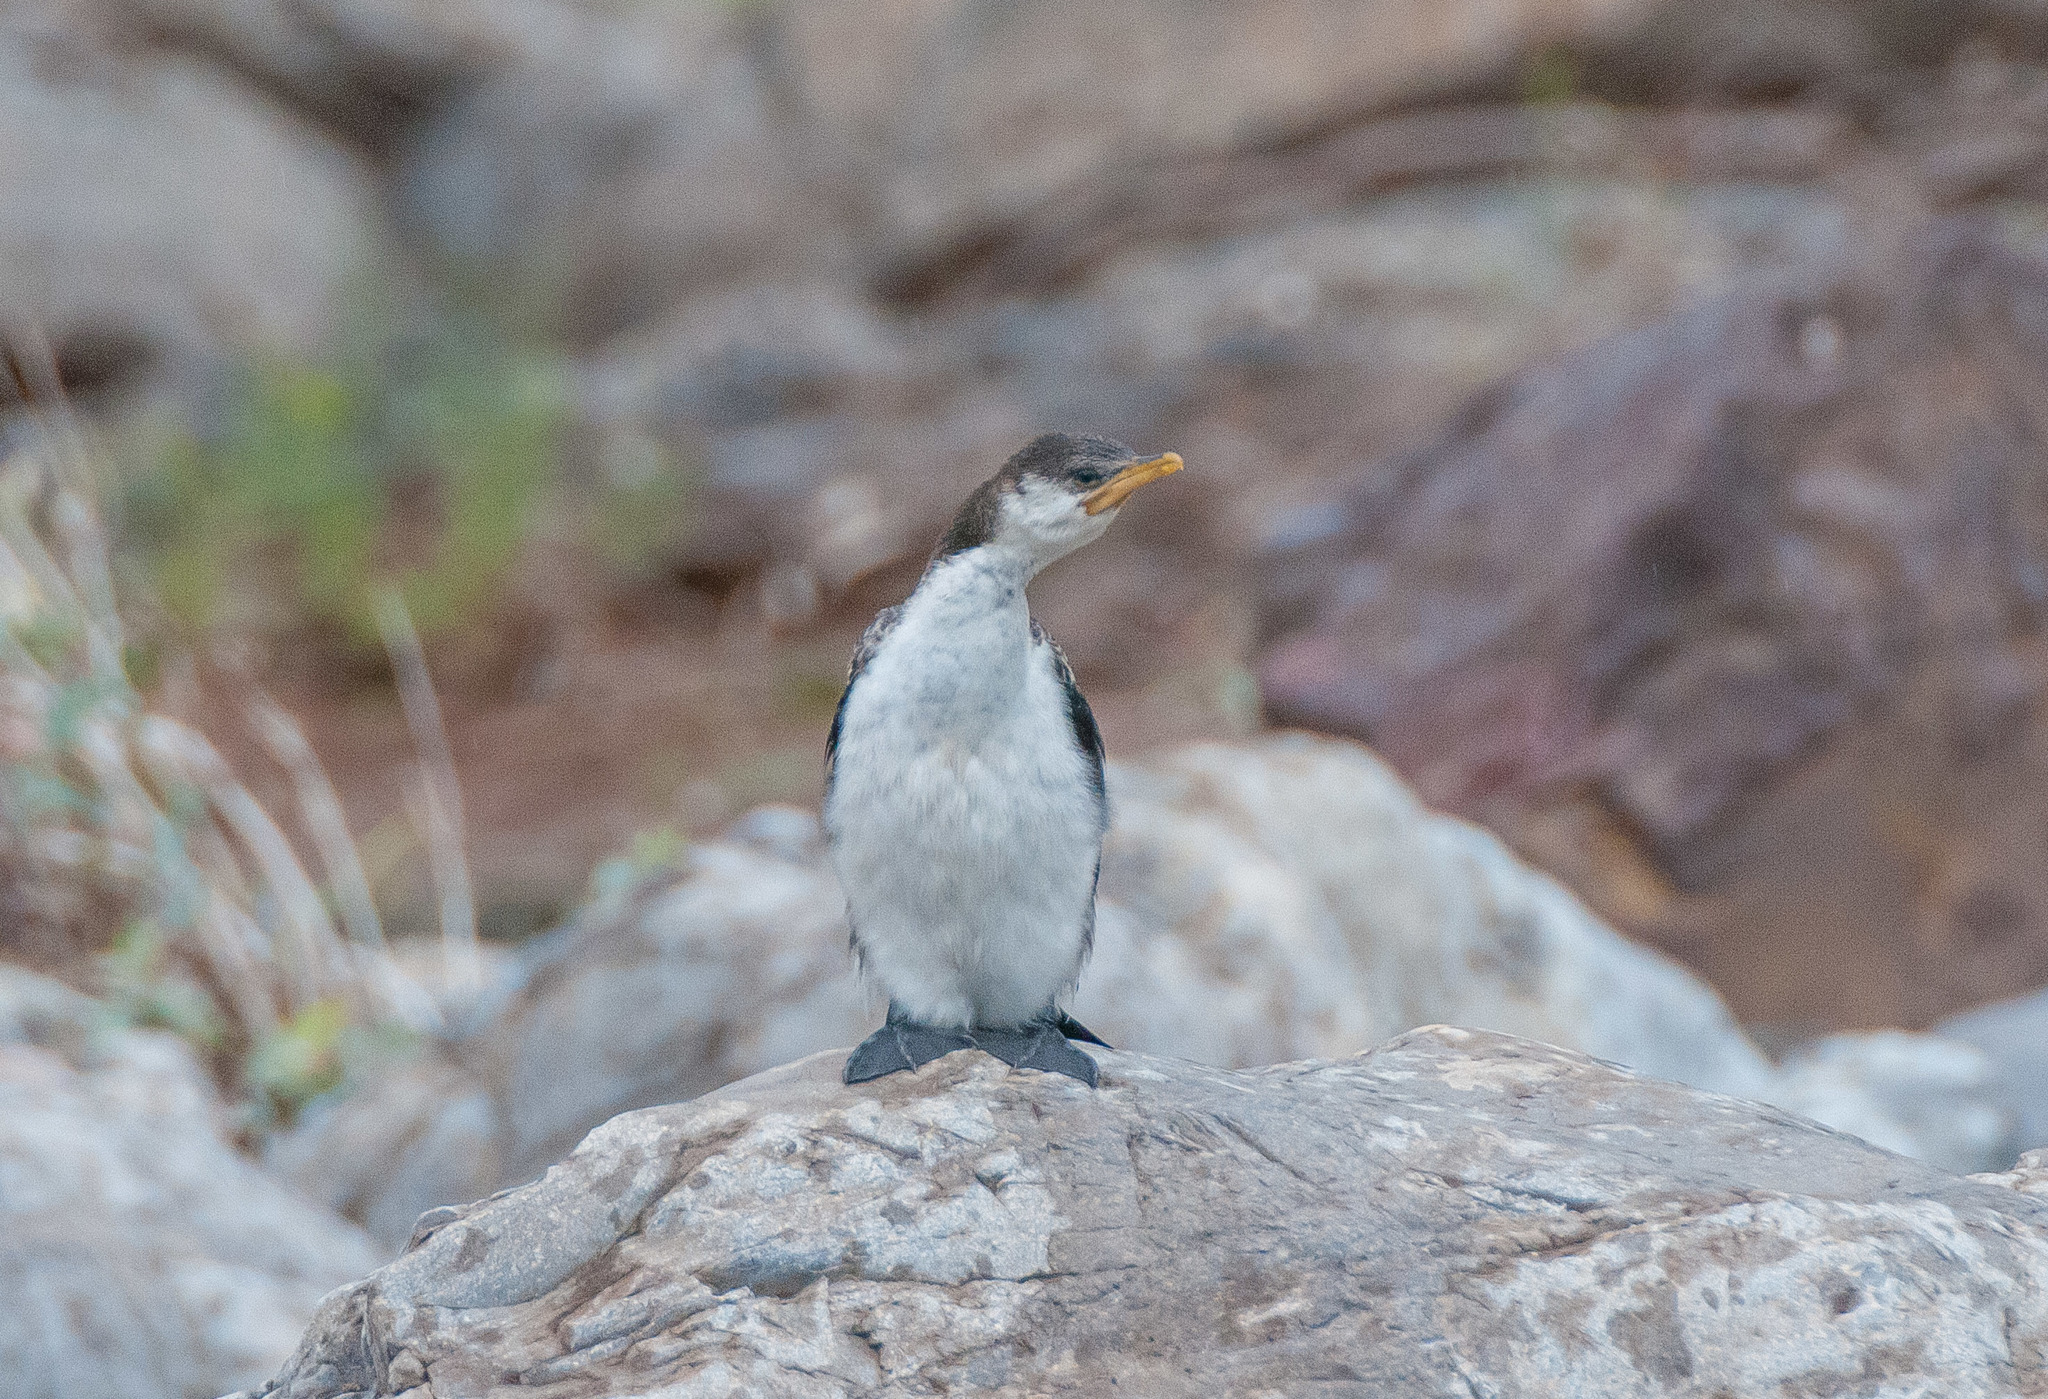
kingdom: Animalia
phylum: Chordata
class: Aves
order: Suliformes
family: Phalacrocoracidae
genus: Microcarbo
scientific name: Microcarbo melanoleucos
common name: Little pied cormorant
